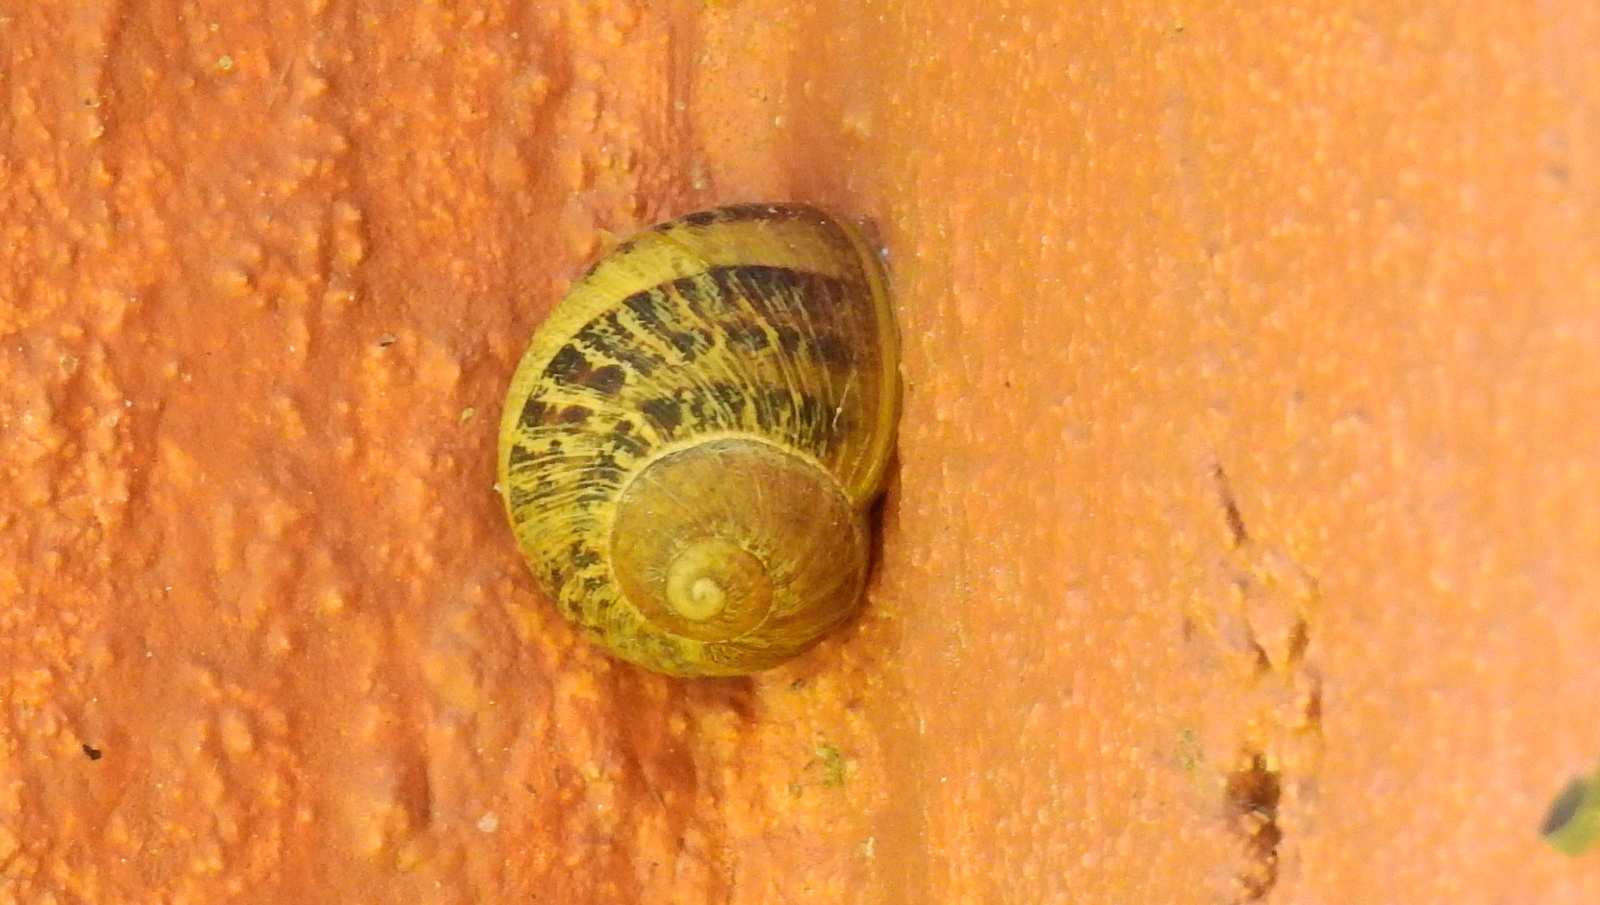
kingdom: Animalia
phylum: Mollusca
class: Gastropoda
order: Stylommatophora
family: Helicidae
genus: Cornu
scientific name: Cornu aspersum
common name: Brown garden snail
